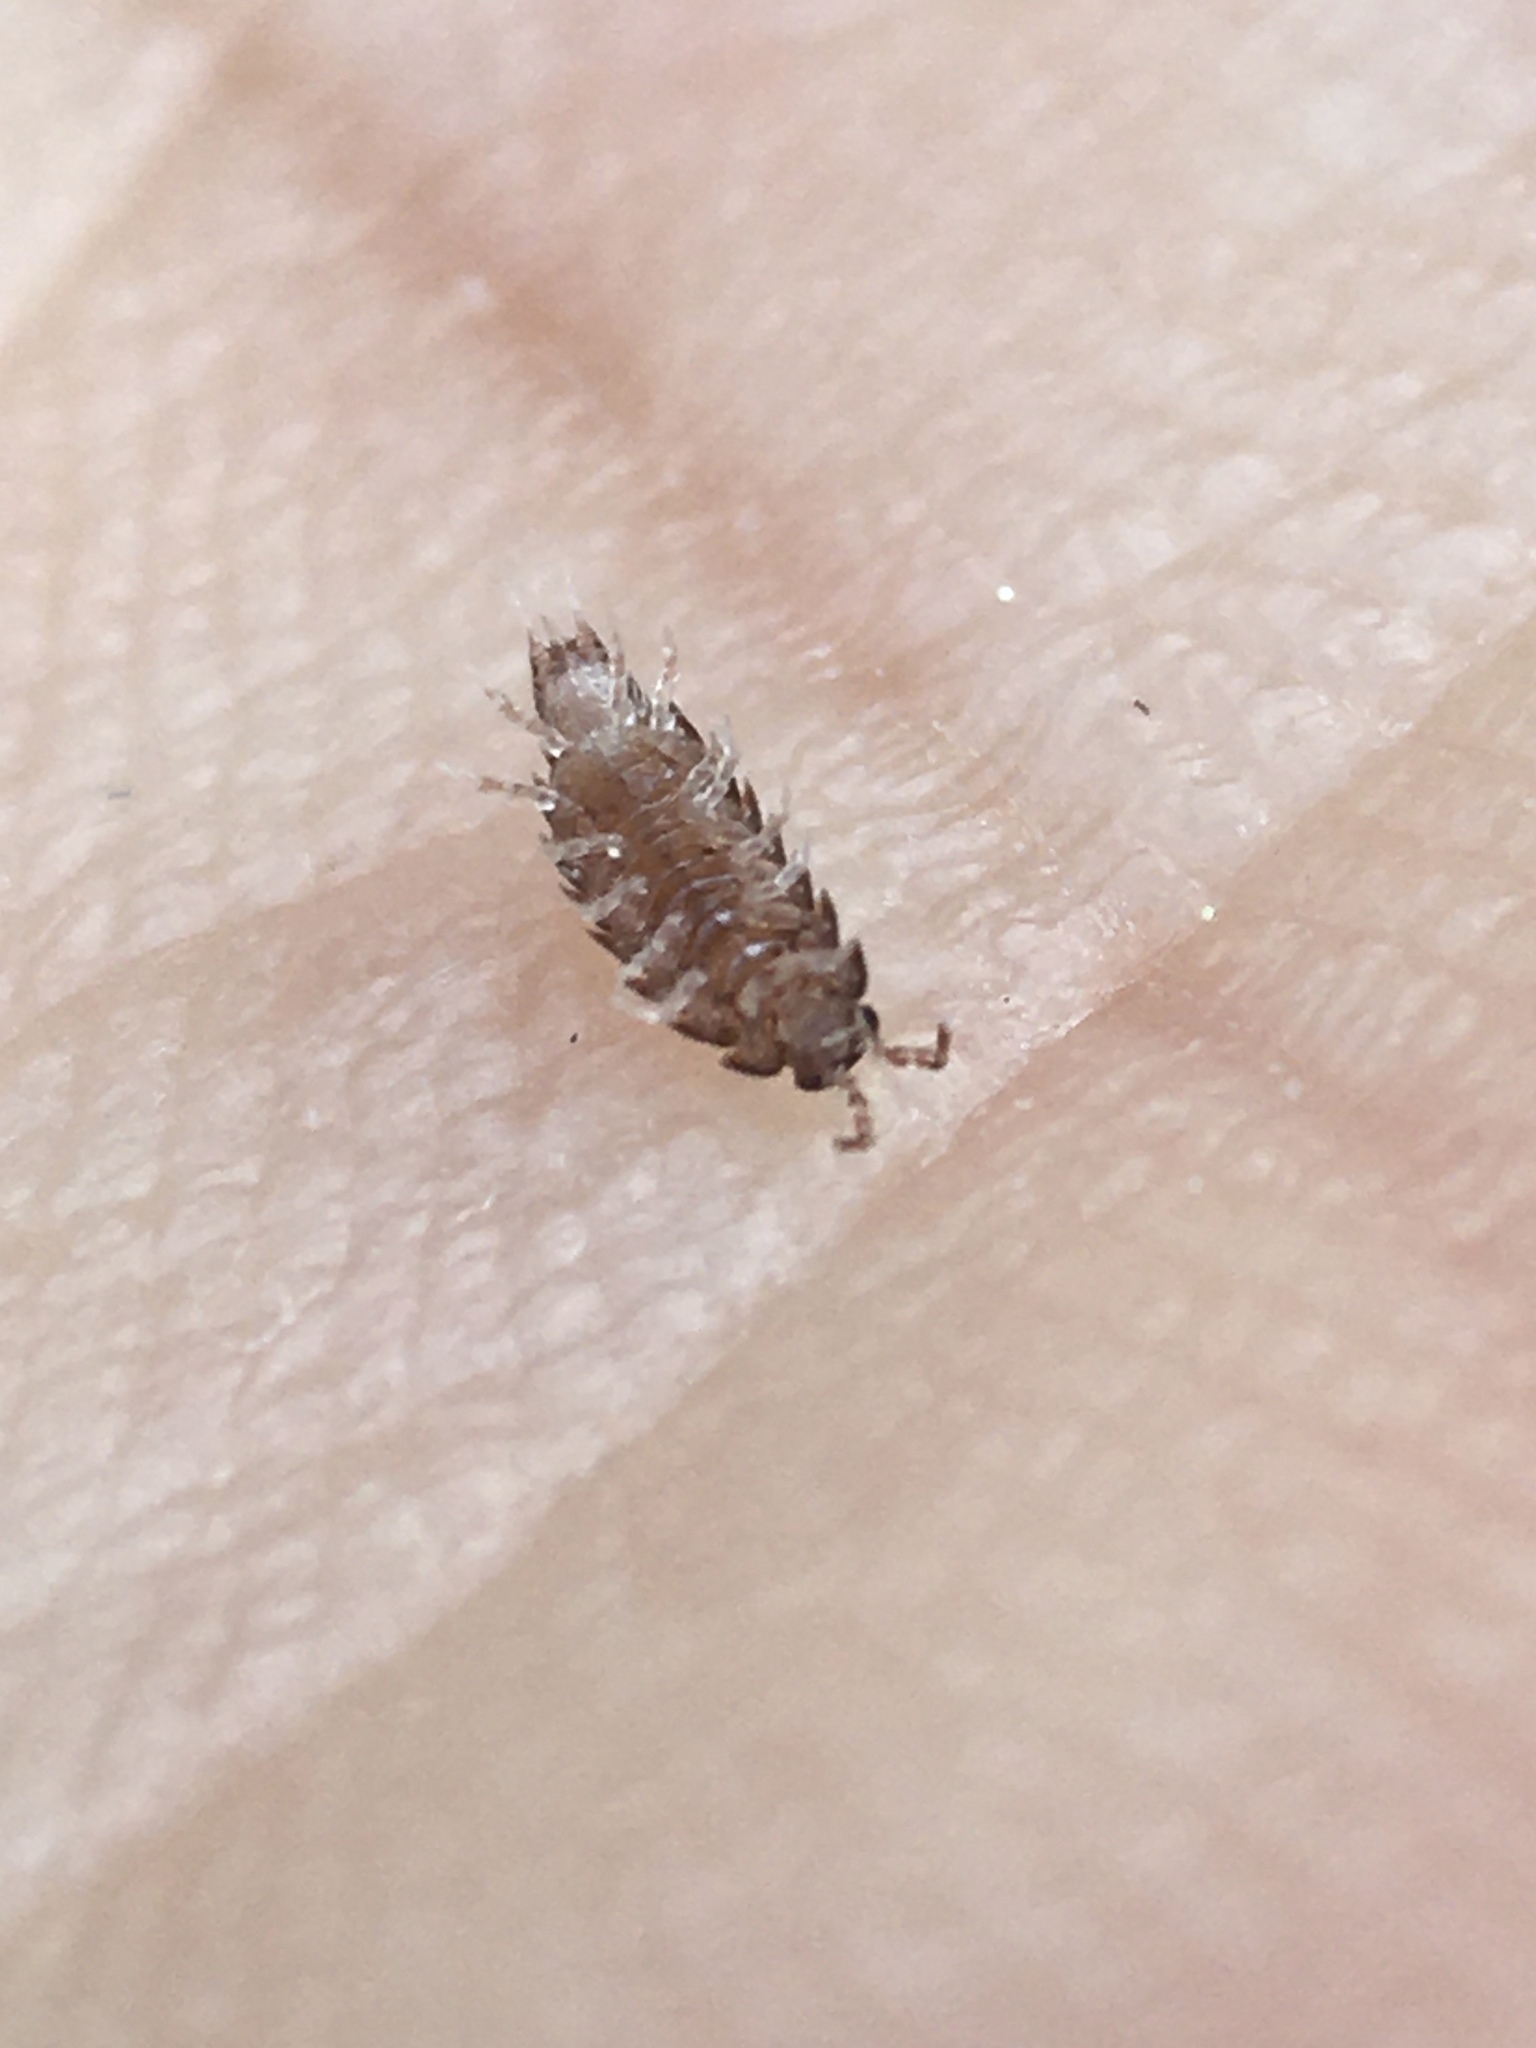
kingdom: Animalia
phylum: Arthropoda
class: Malacostraca
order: Isopoda
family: Trichoniscidae
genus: Trichoniscus
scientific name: Trichoniscus
